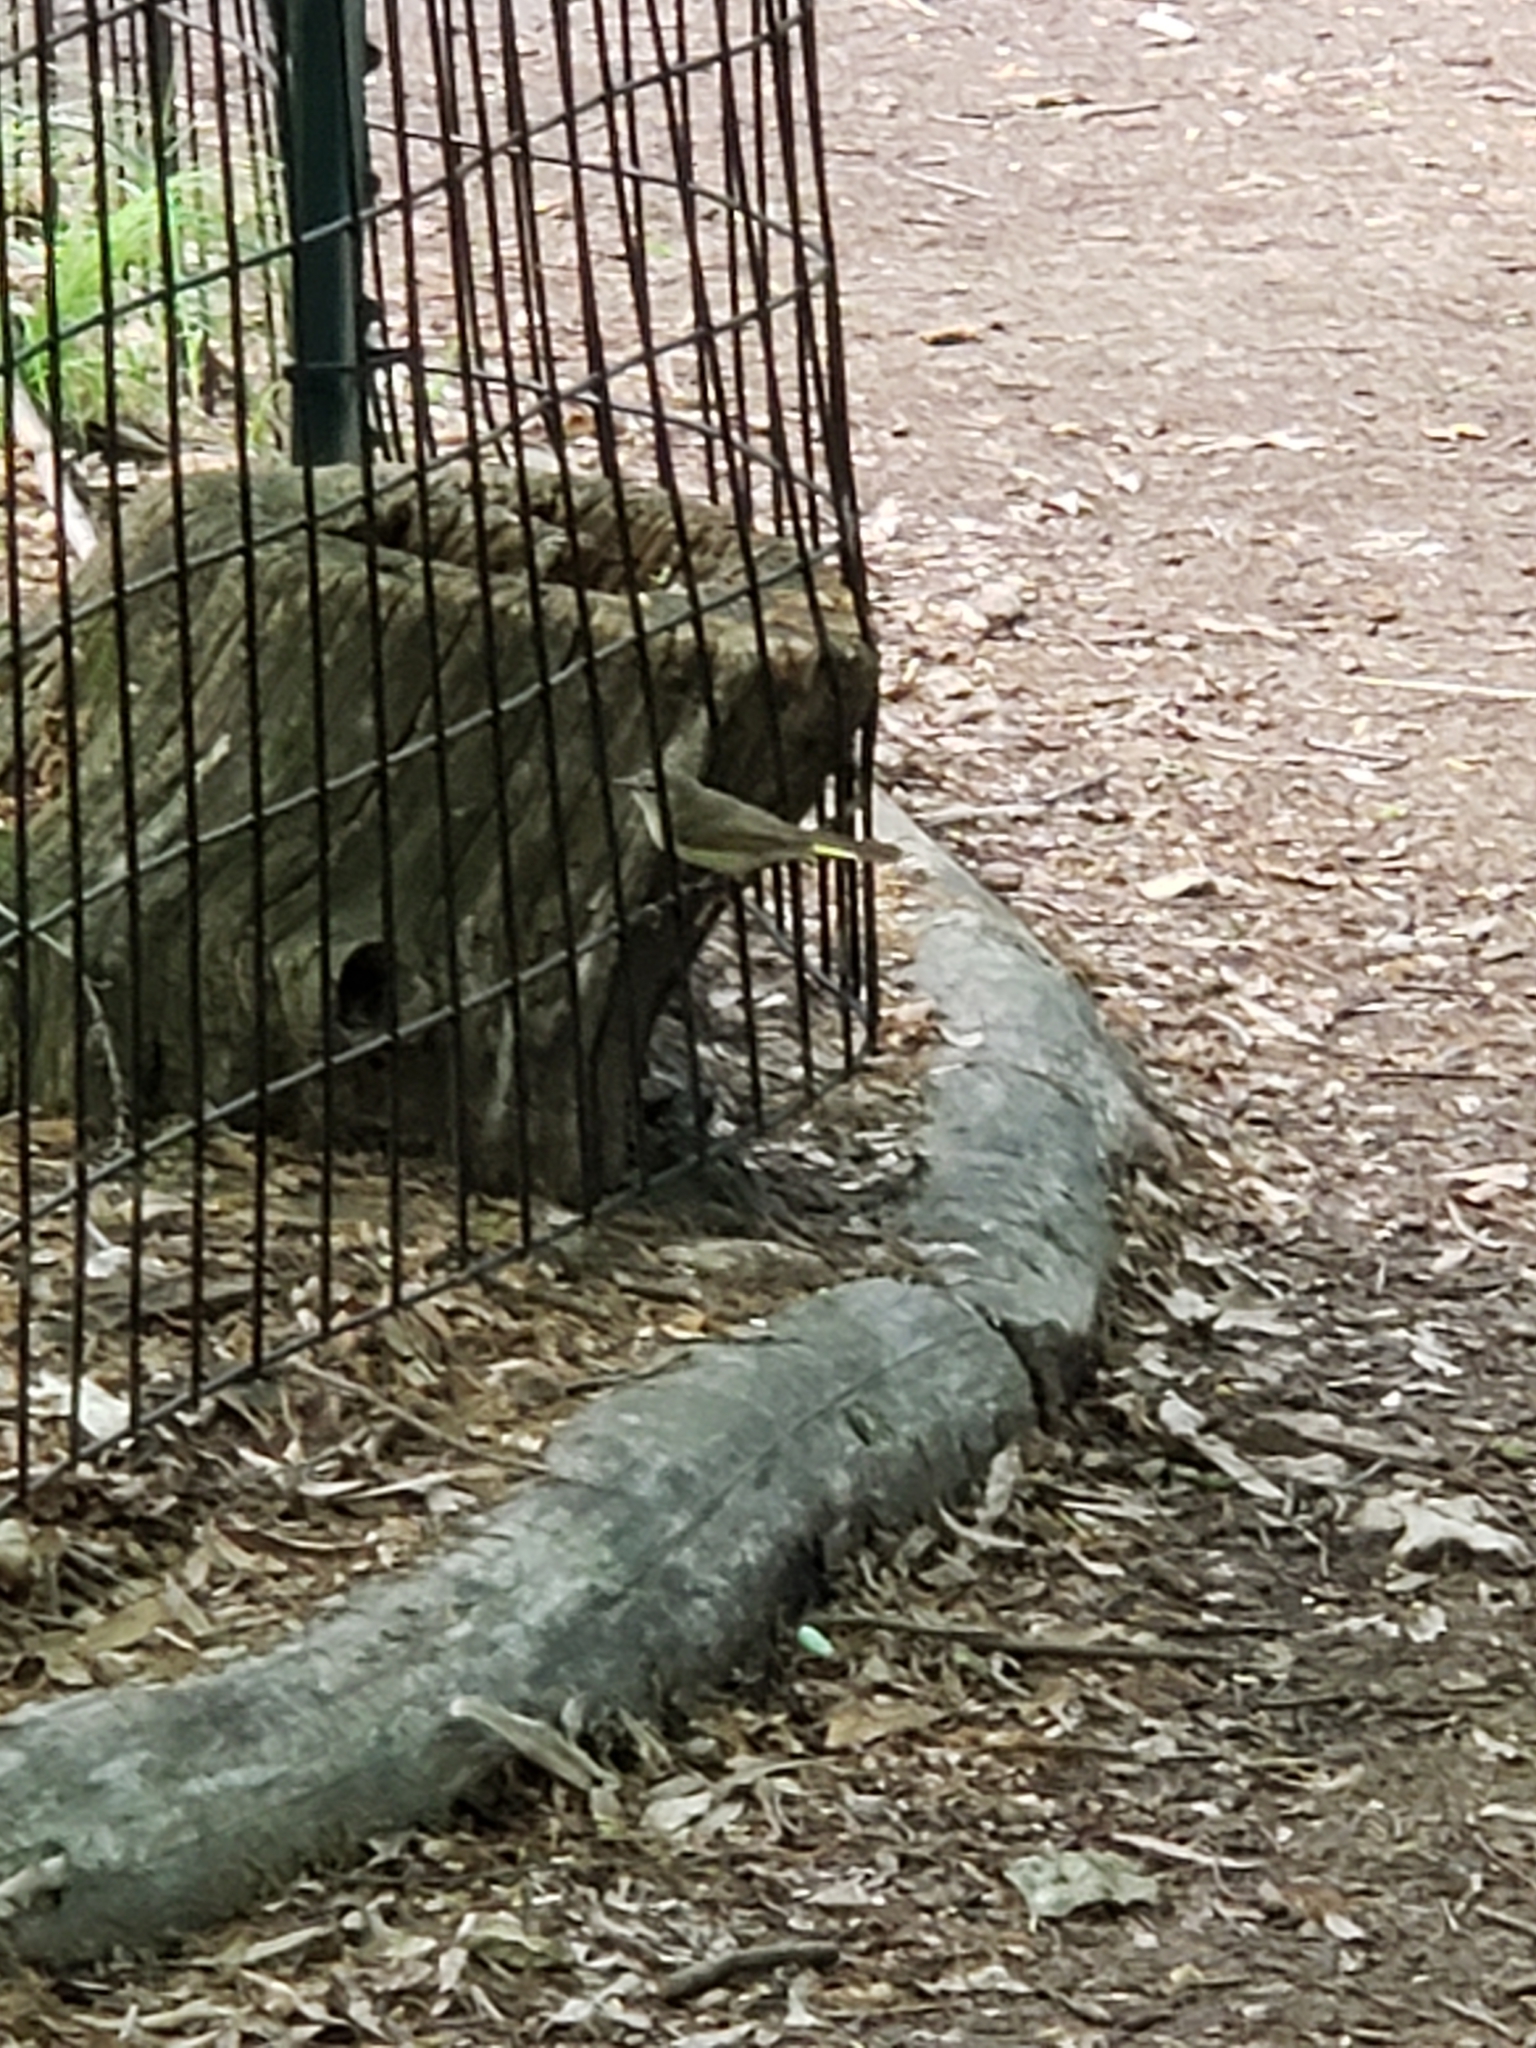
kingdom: Animalia
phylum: Chordata
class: Aves
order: Passeriformes
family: Parulidae
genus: Setophaga
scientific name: Setophaga ruticilla
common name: American redstart
